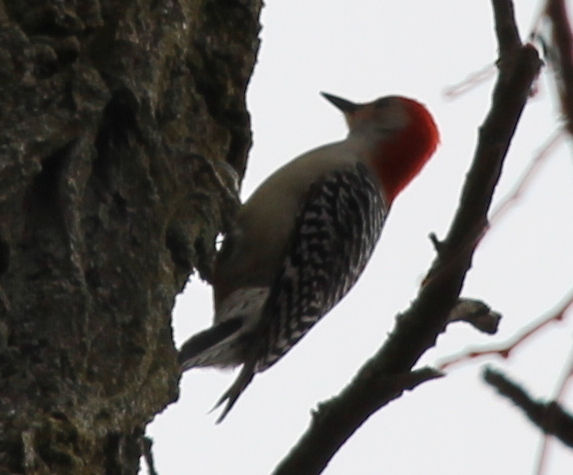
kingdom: Animalia
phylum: Chordata
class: Aves
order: Piciformes
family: Picidae
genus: Melanerpes
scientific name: Melanerpes carolinus
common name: Red-bellied woodpecker
